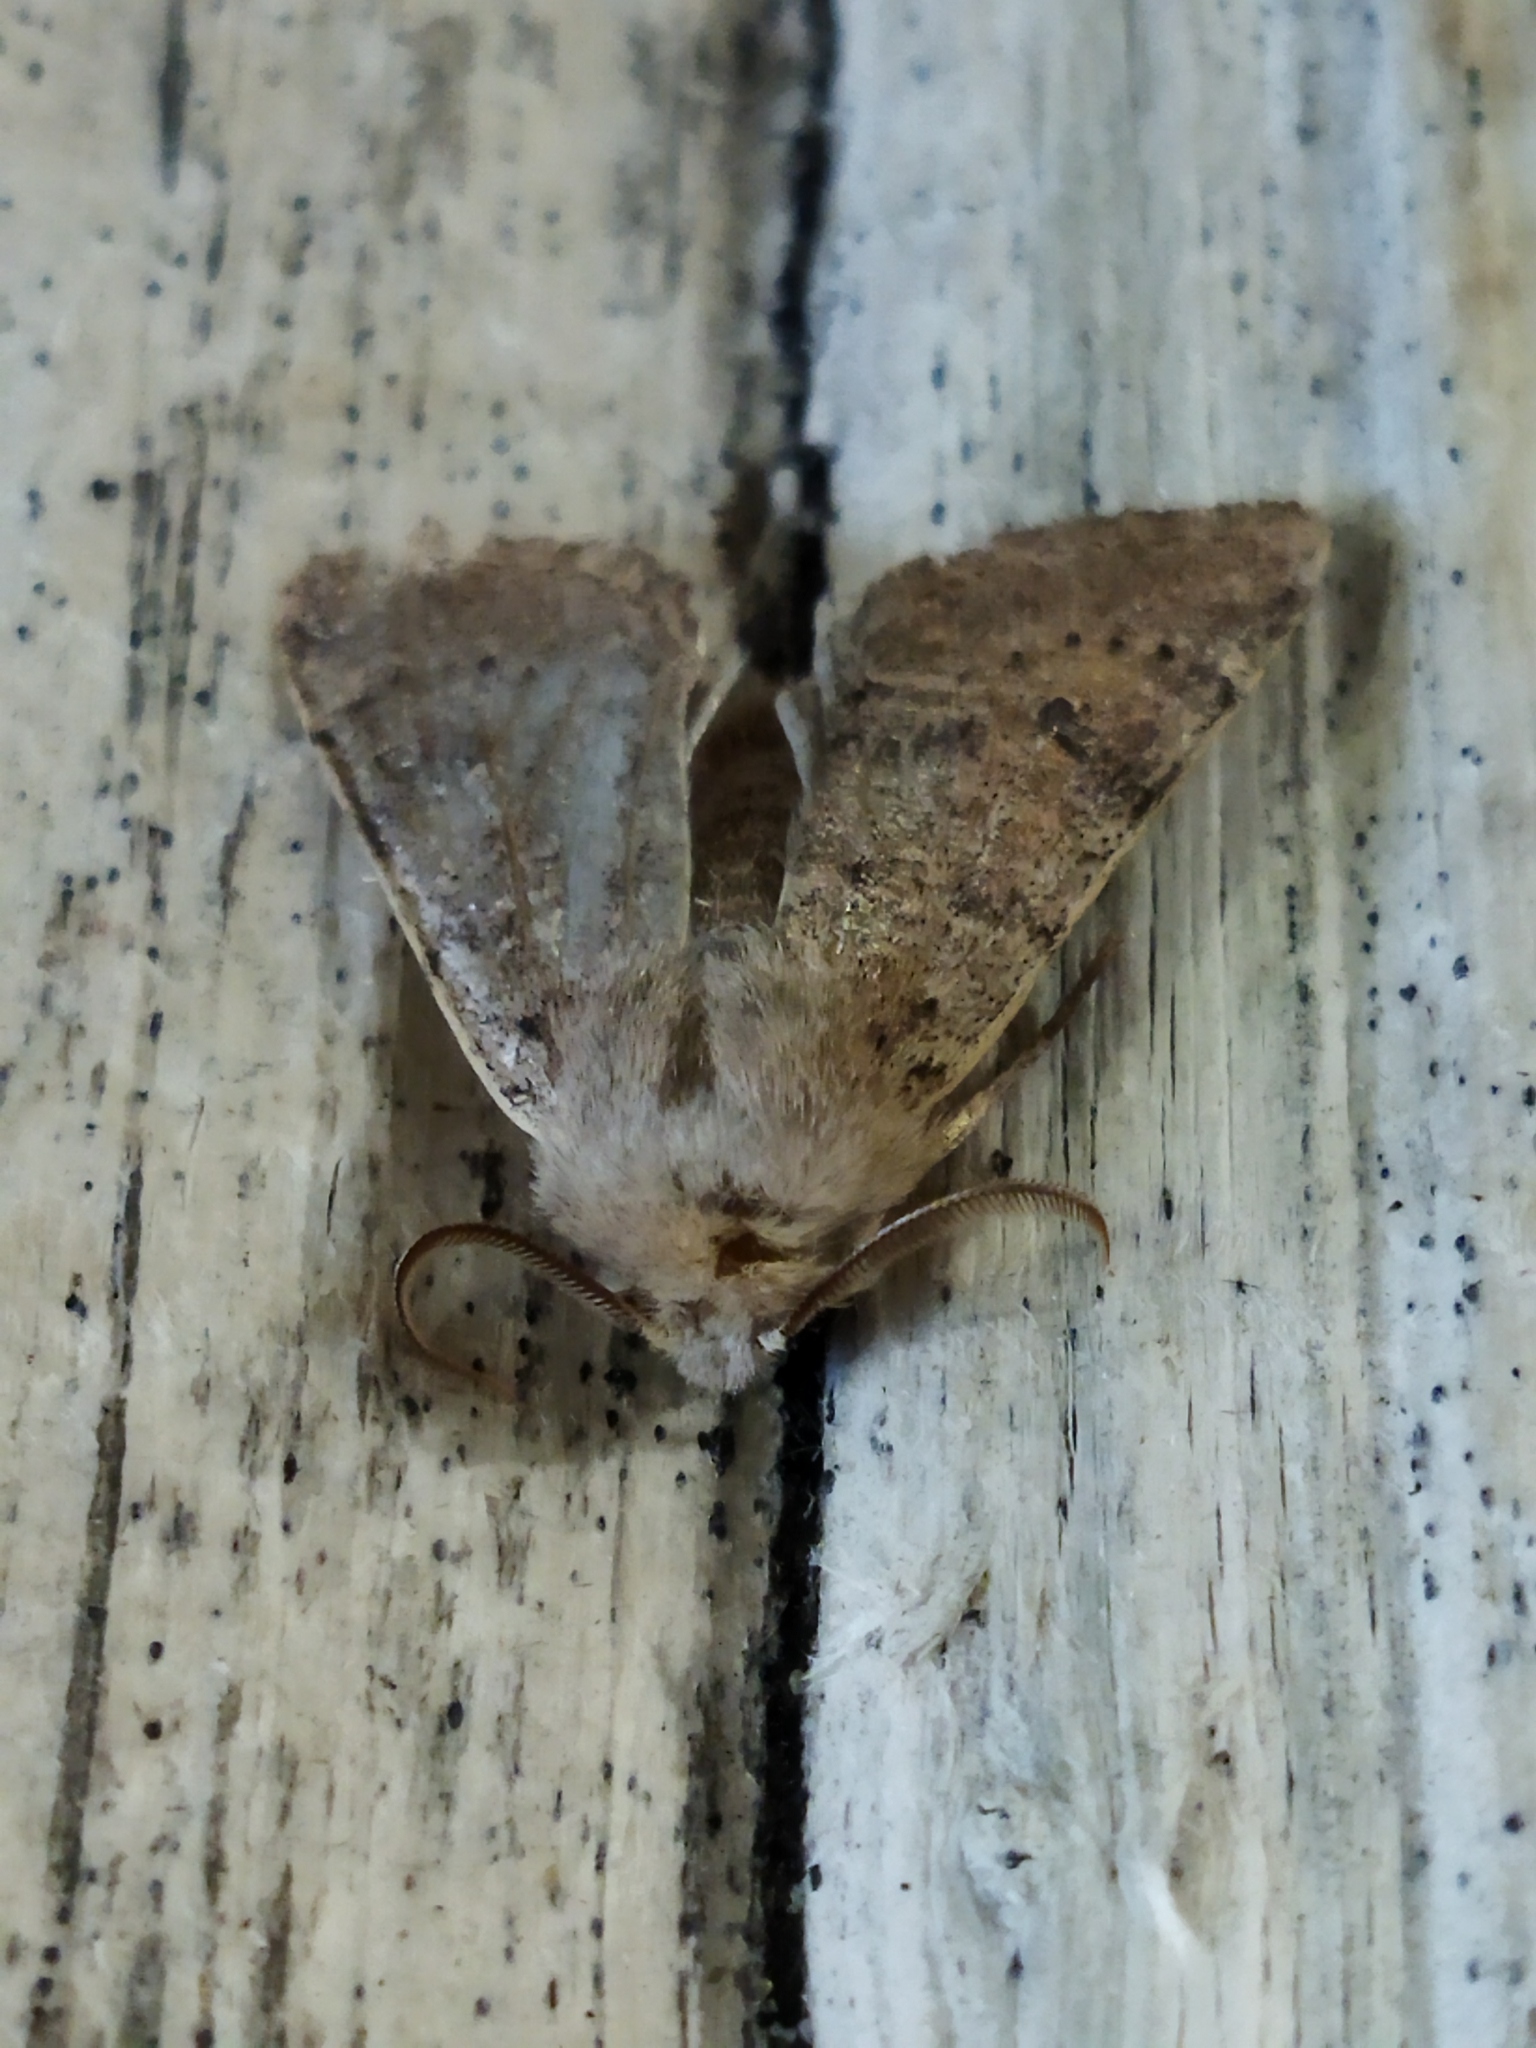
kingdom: Animalia
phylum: Arthropoda
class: Insecta
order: Lepidoptera
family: Noctuidae
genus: Orthosia
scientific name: Orthosia cruda
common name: Small quaker
